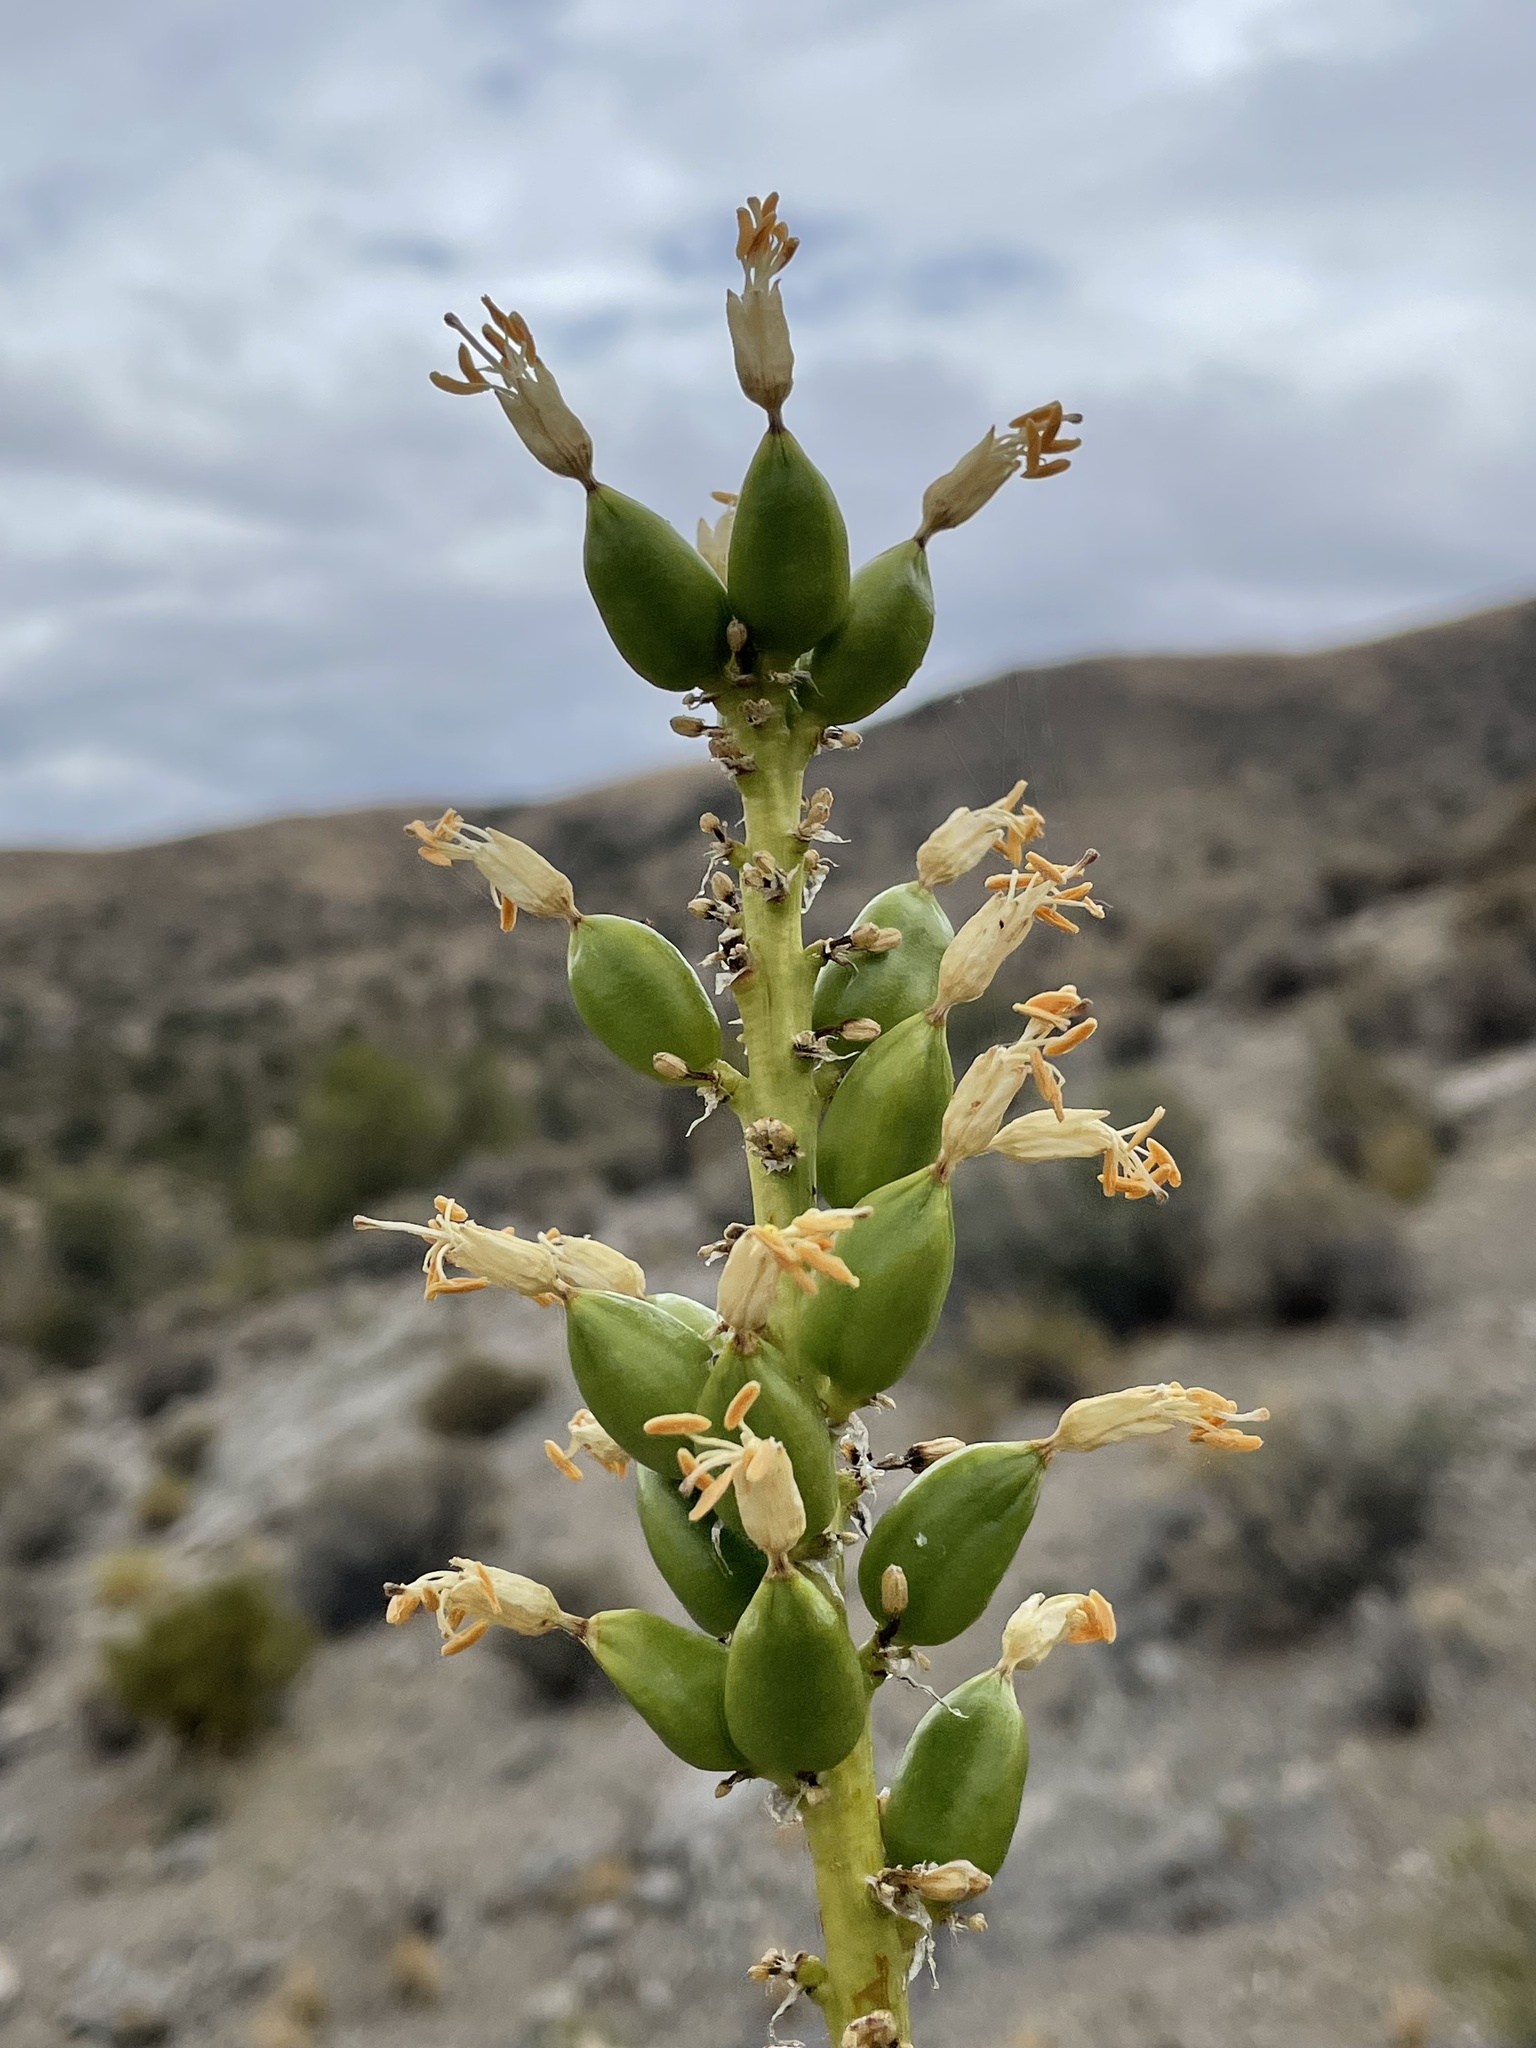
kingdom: Plantae
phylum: Tracheophyta
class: Liliopsida
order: Asparagales
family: Asparagaceae
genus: Agave
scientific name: Agave utahensis
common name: Utah agave
